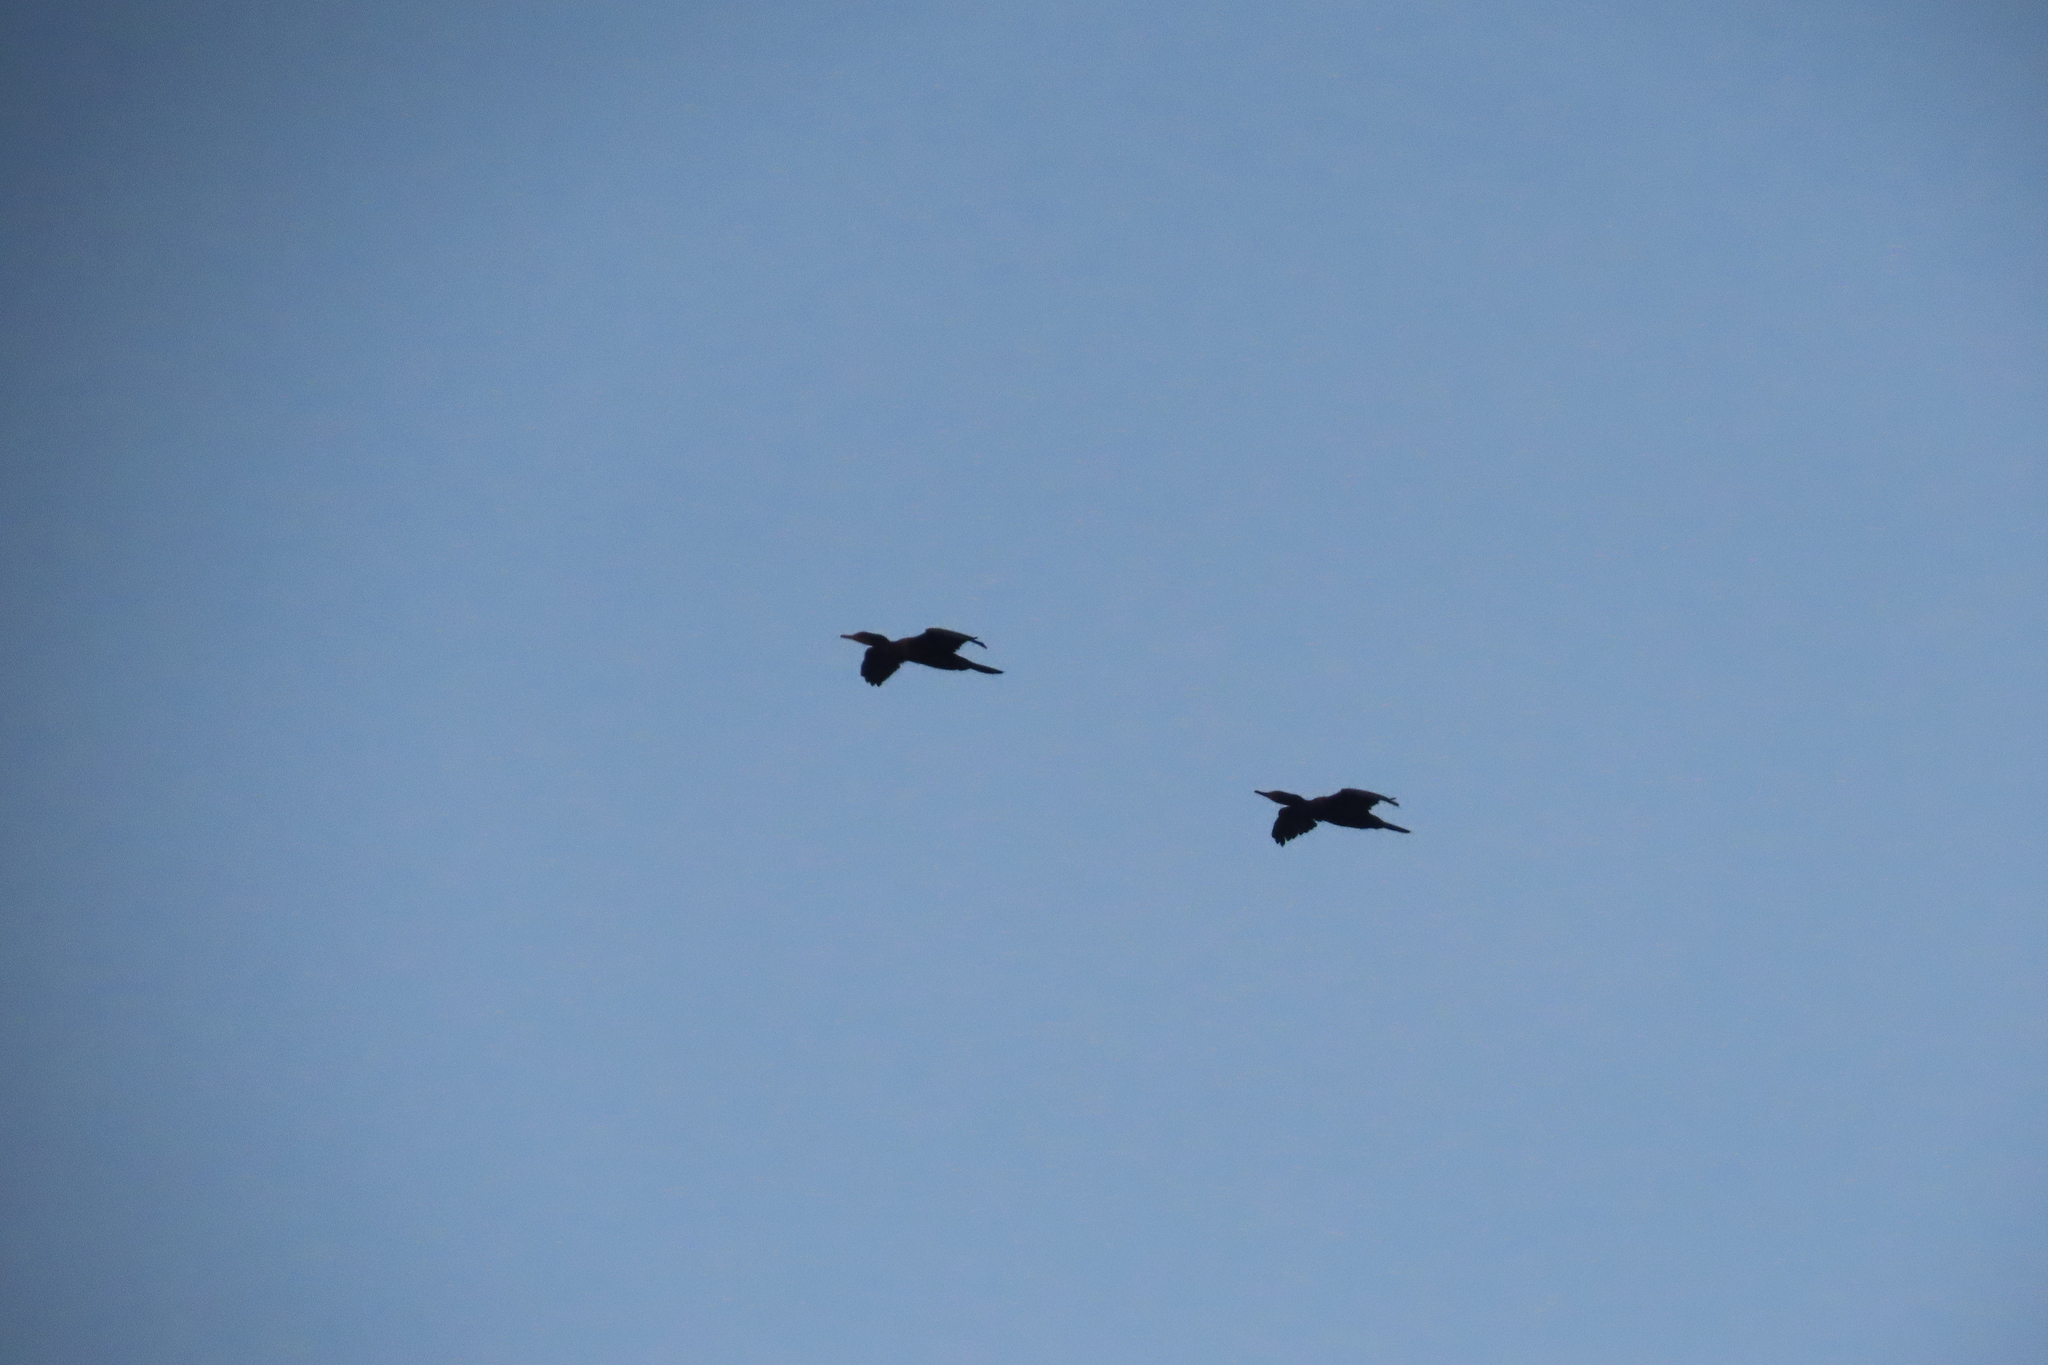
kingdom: Animalia
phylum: Chordata
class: Aves
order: Suliformes
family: Phalacrocoracidae
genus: Microcarbo
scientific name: Microcarbo niger
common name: Little cormorant
